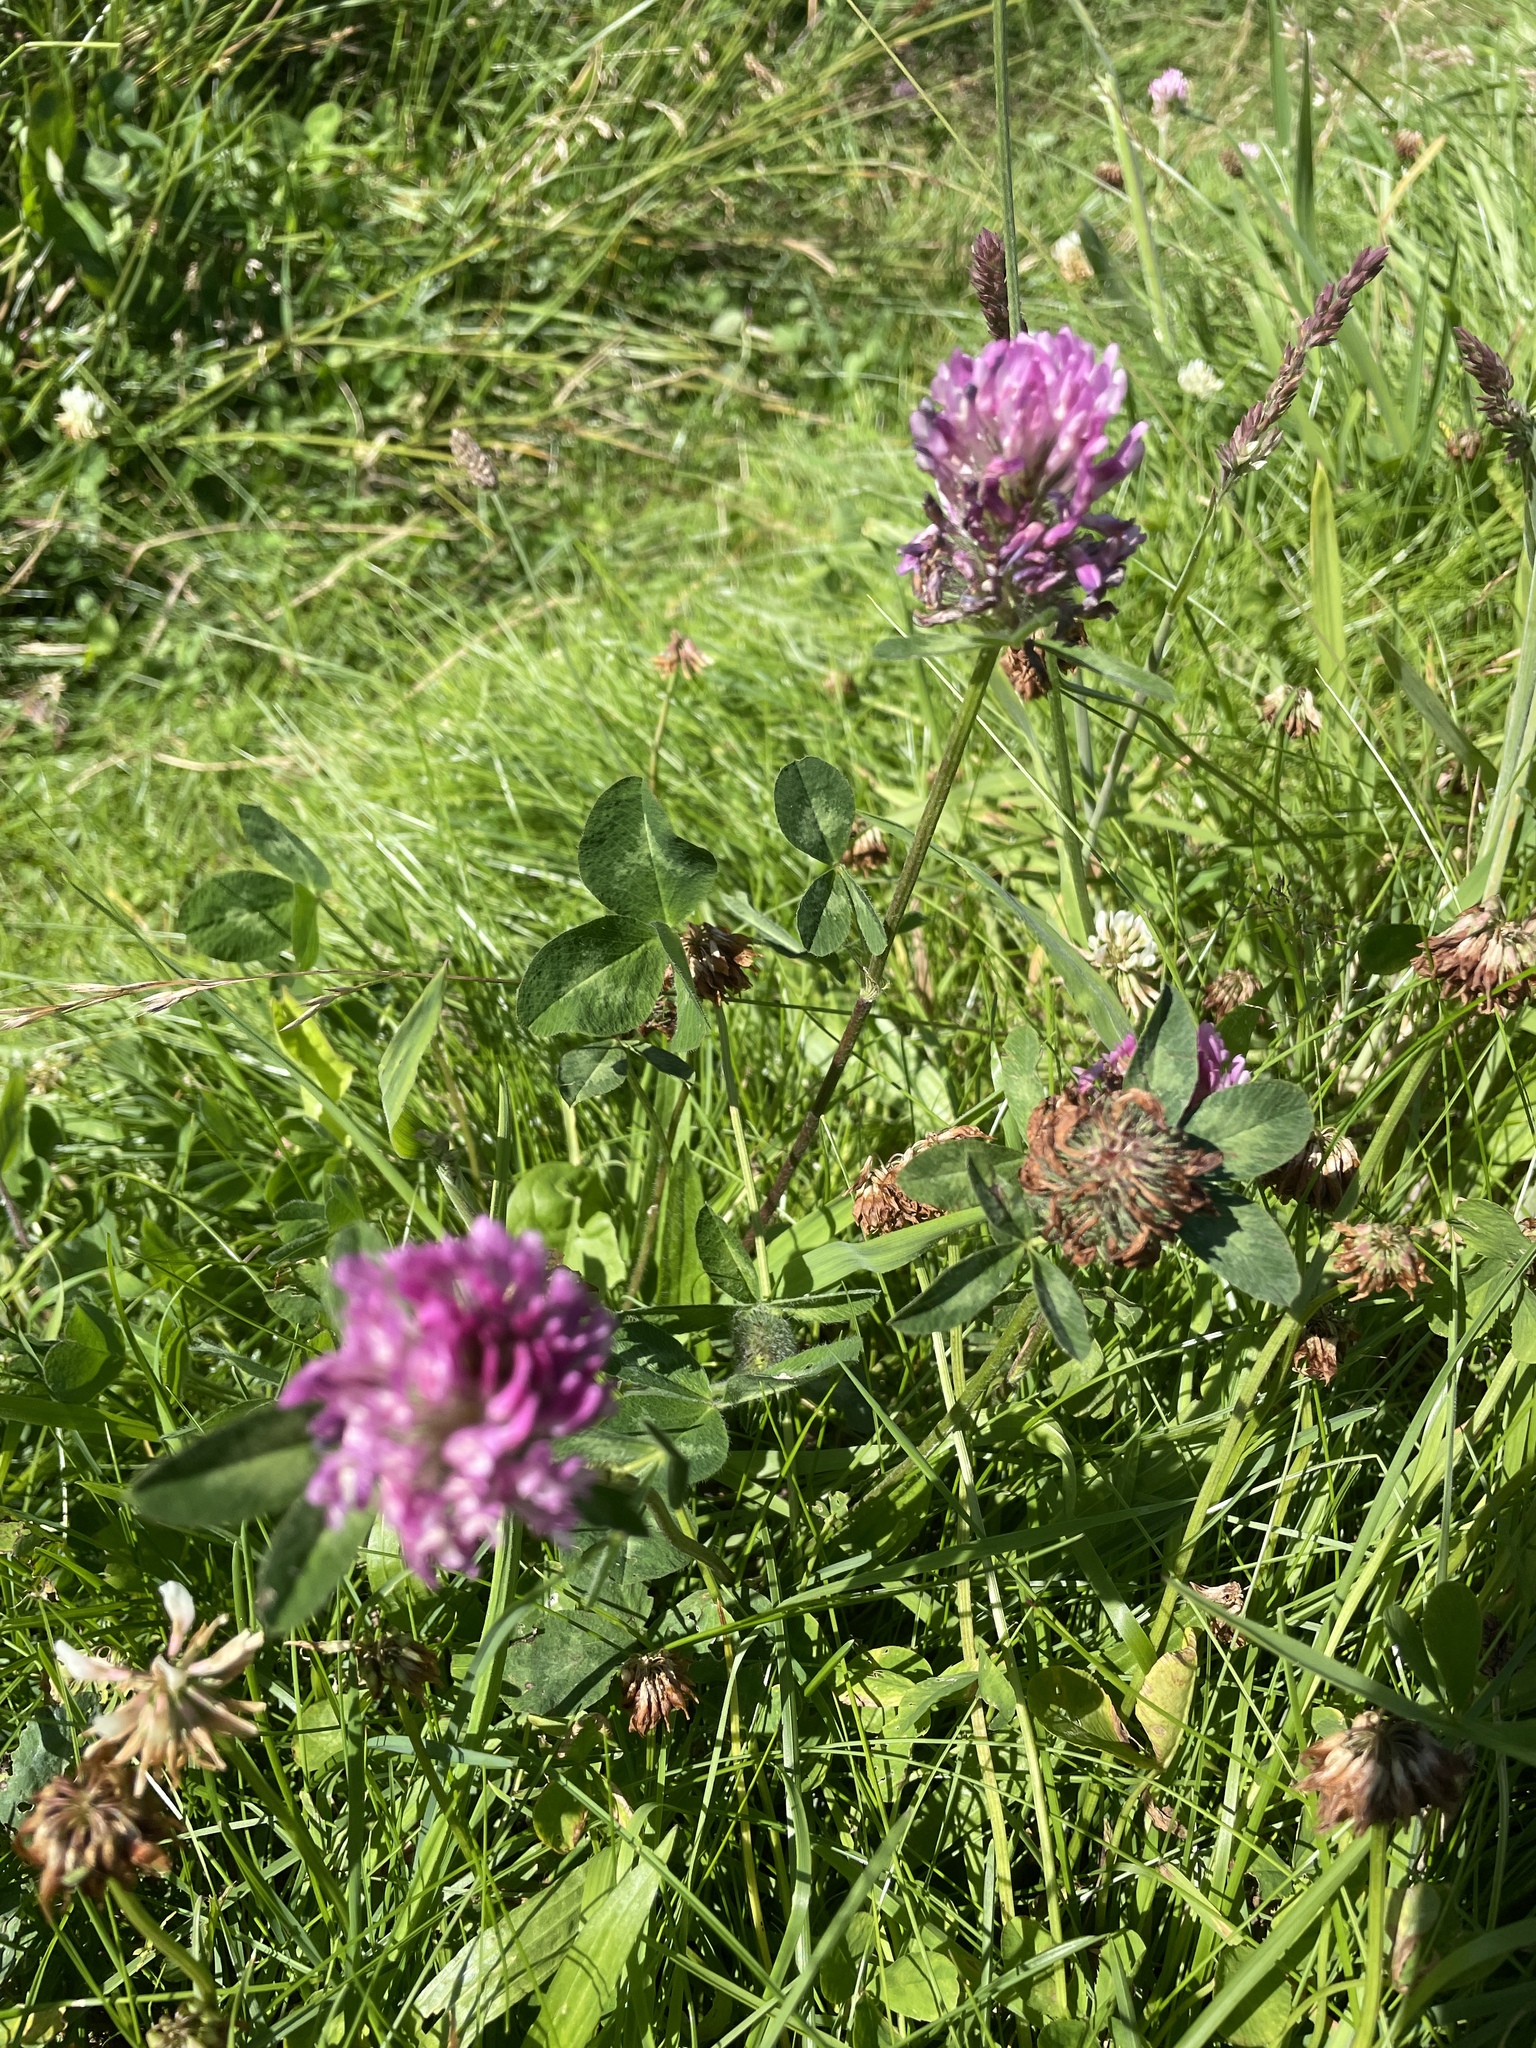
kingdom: Plantae
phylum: Tracheophyta
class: Magnoliopsida
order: Fabales
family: Fabaceae
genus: Trifolium
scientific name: Trifolium pratense
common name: Red clover
